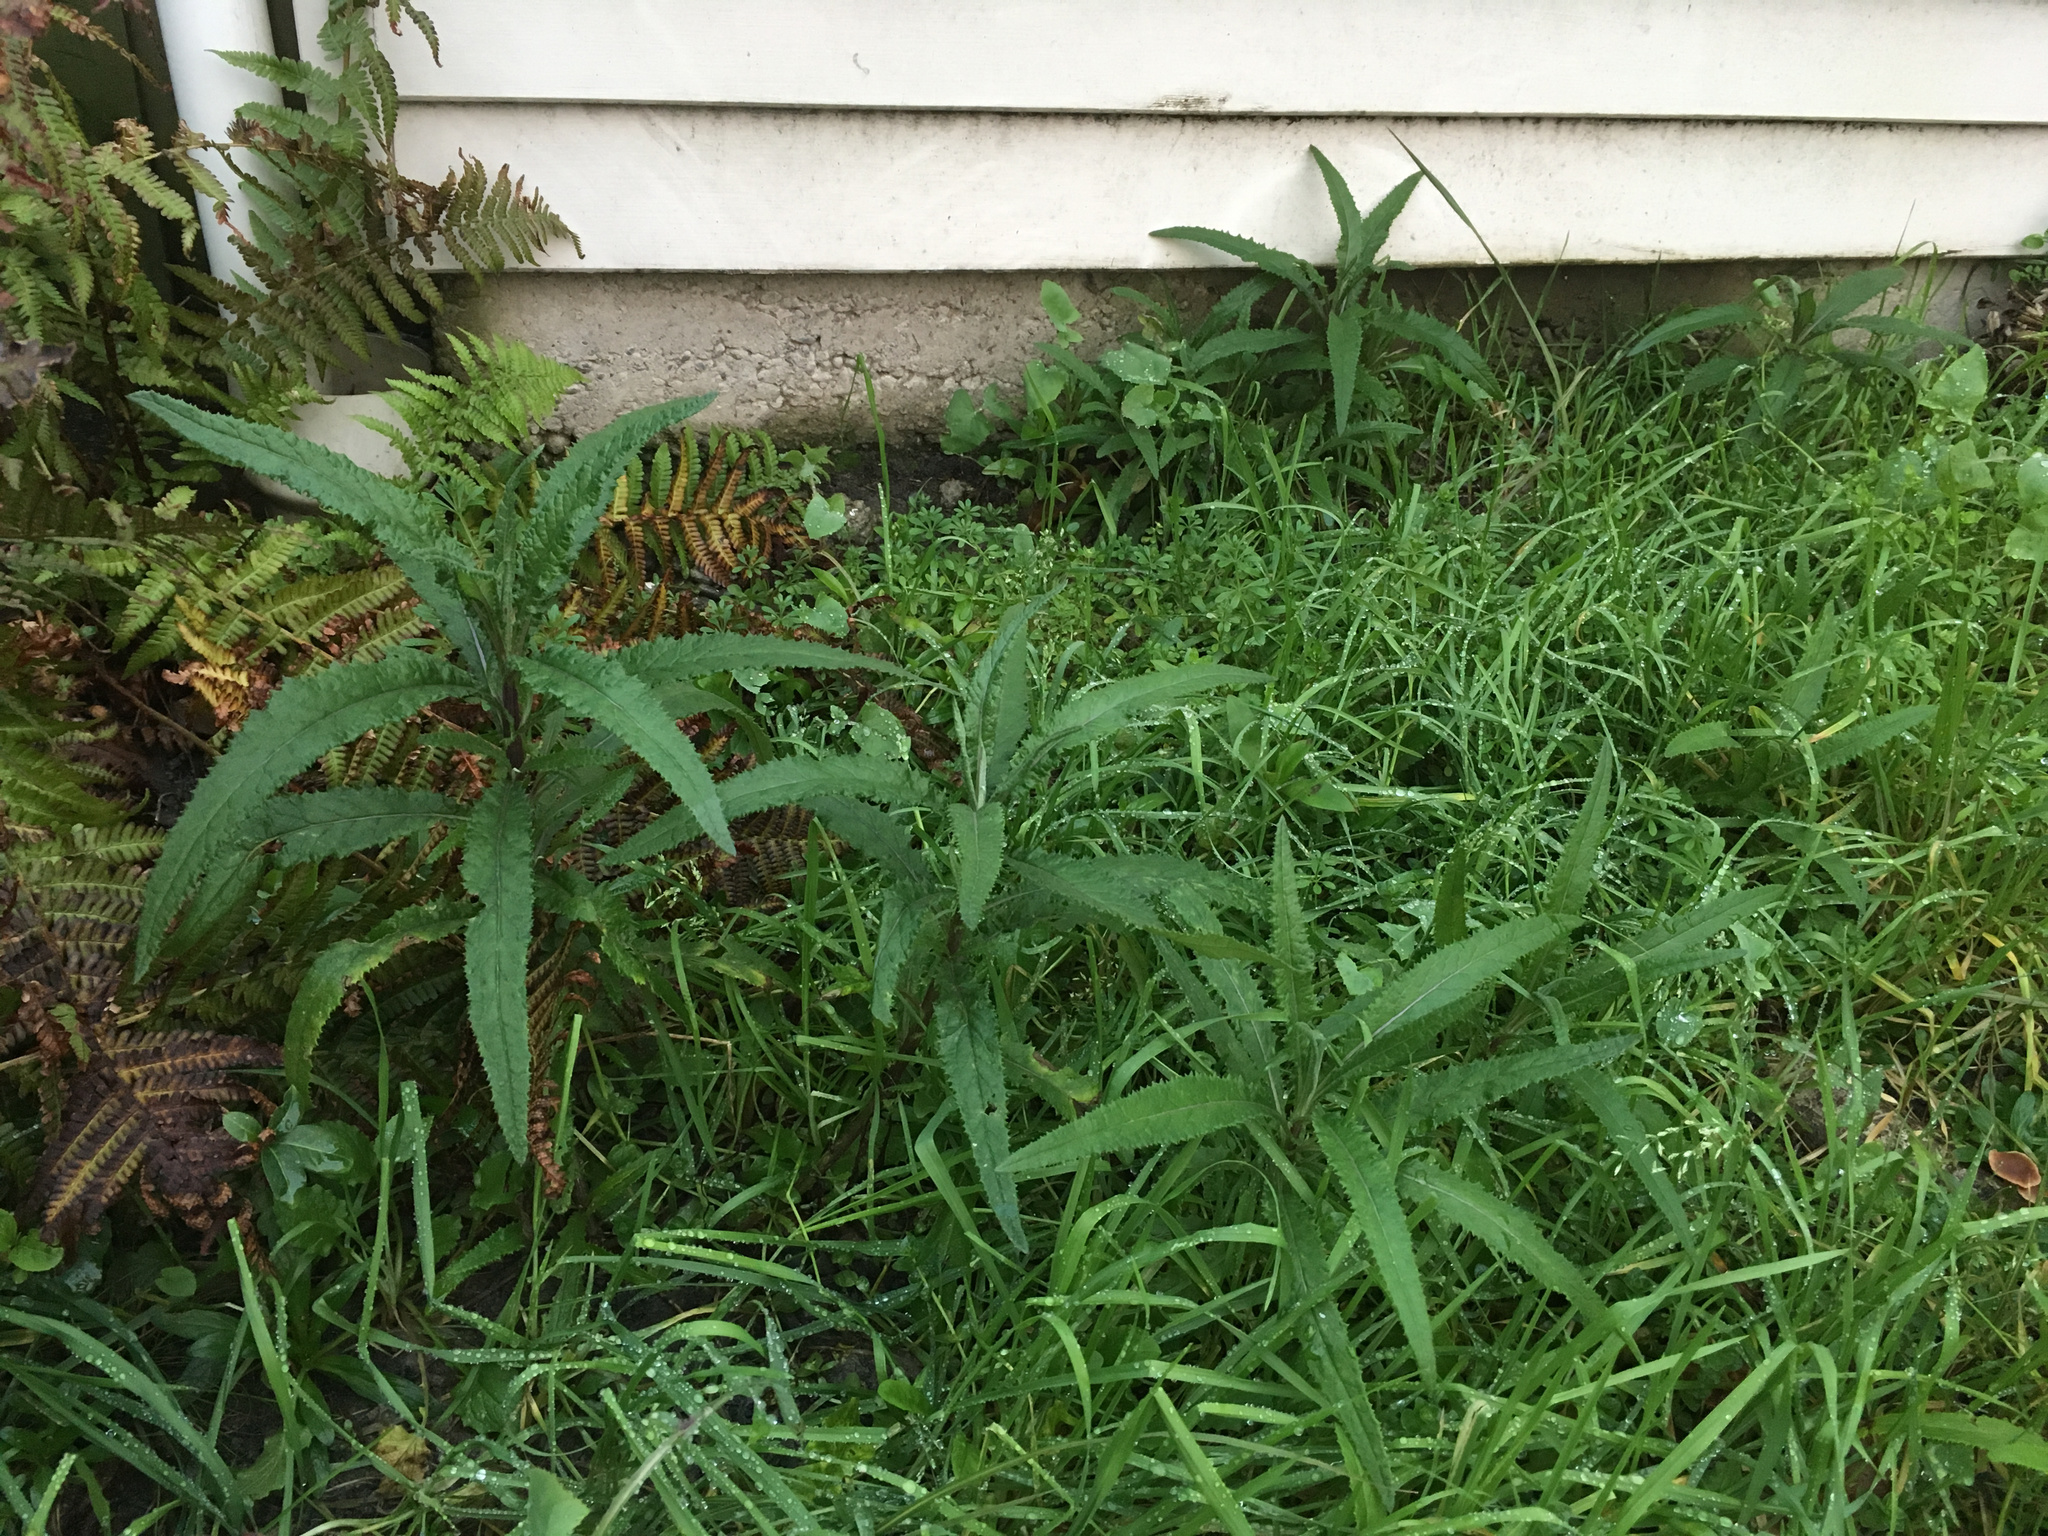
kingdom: Plantae
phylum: Tracheophyta
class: Magnoliopsida
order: Asterales
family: Asteraceae
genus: Senecio
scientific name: Senecio minimus
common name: Toothed fireweed
